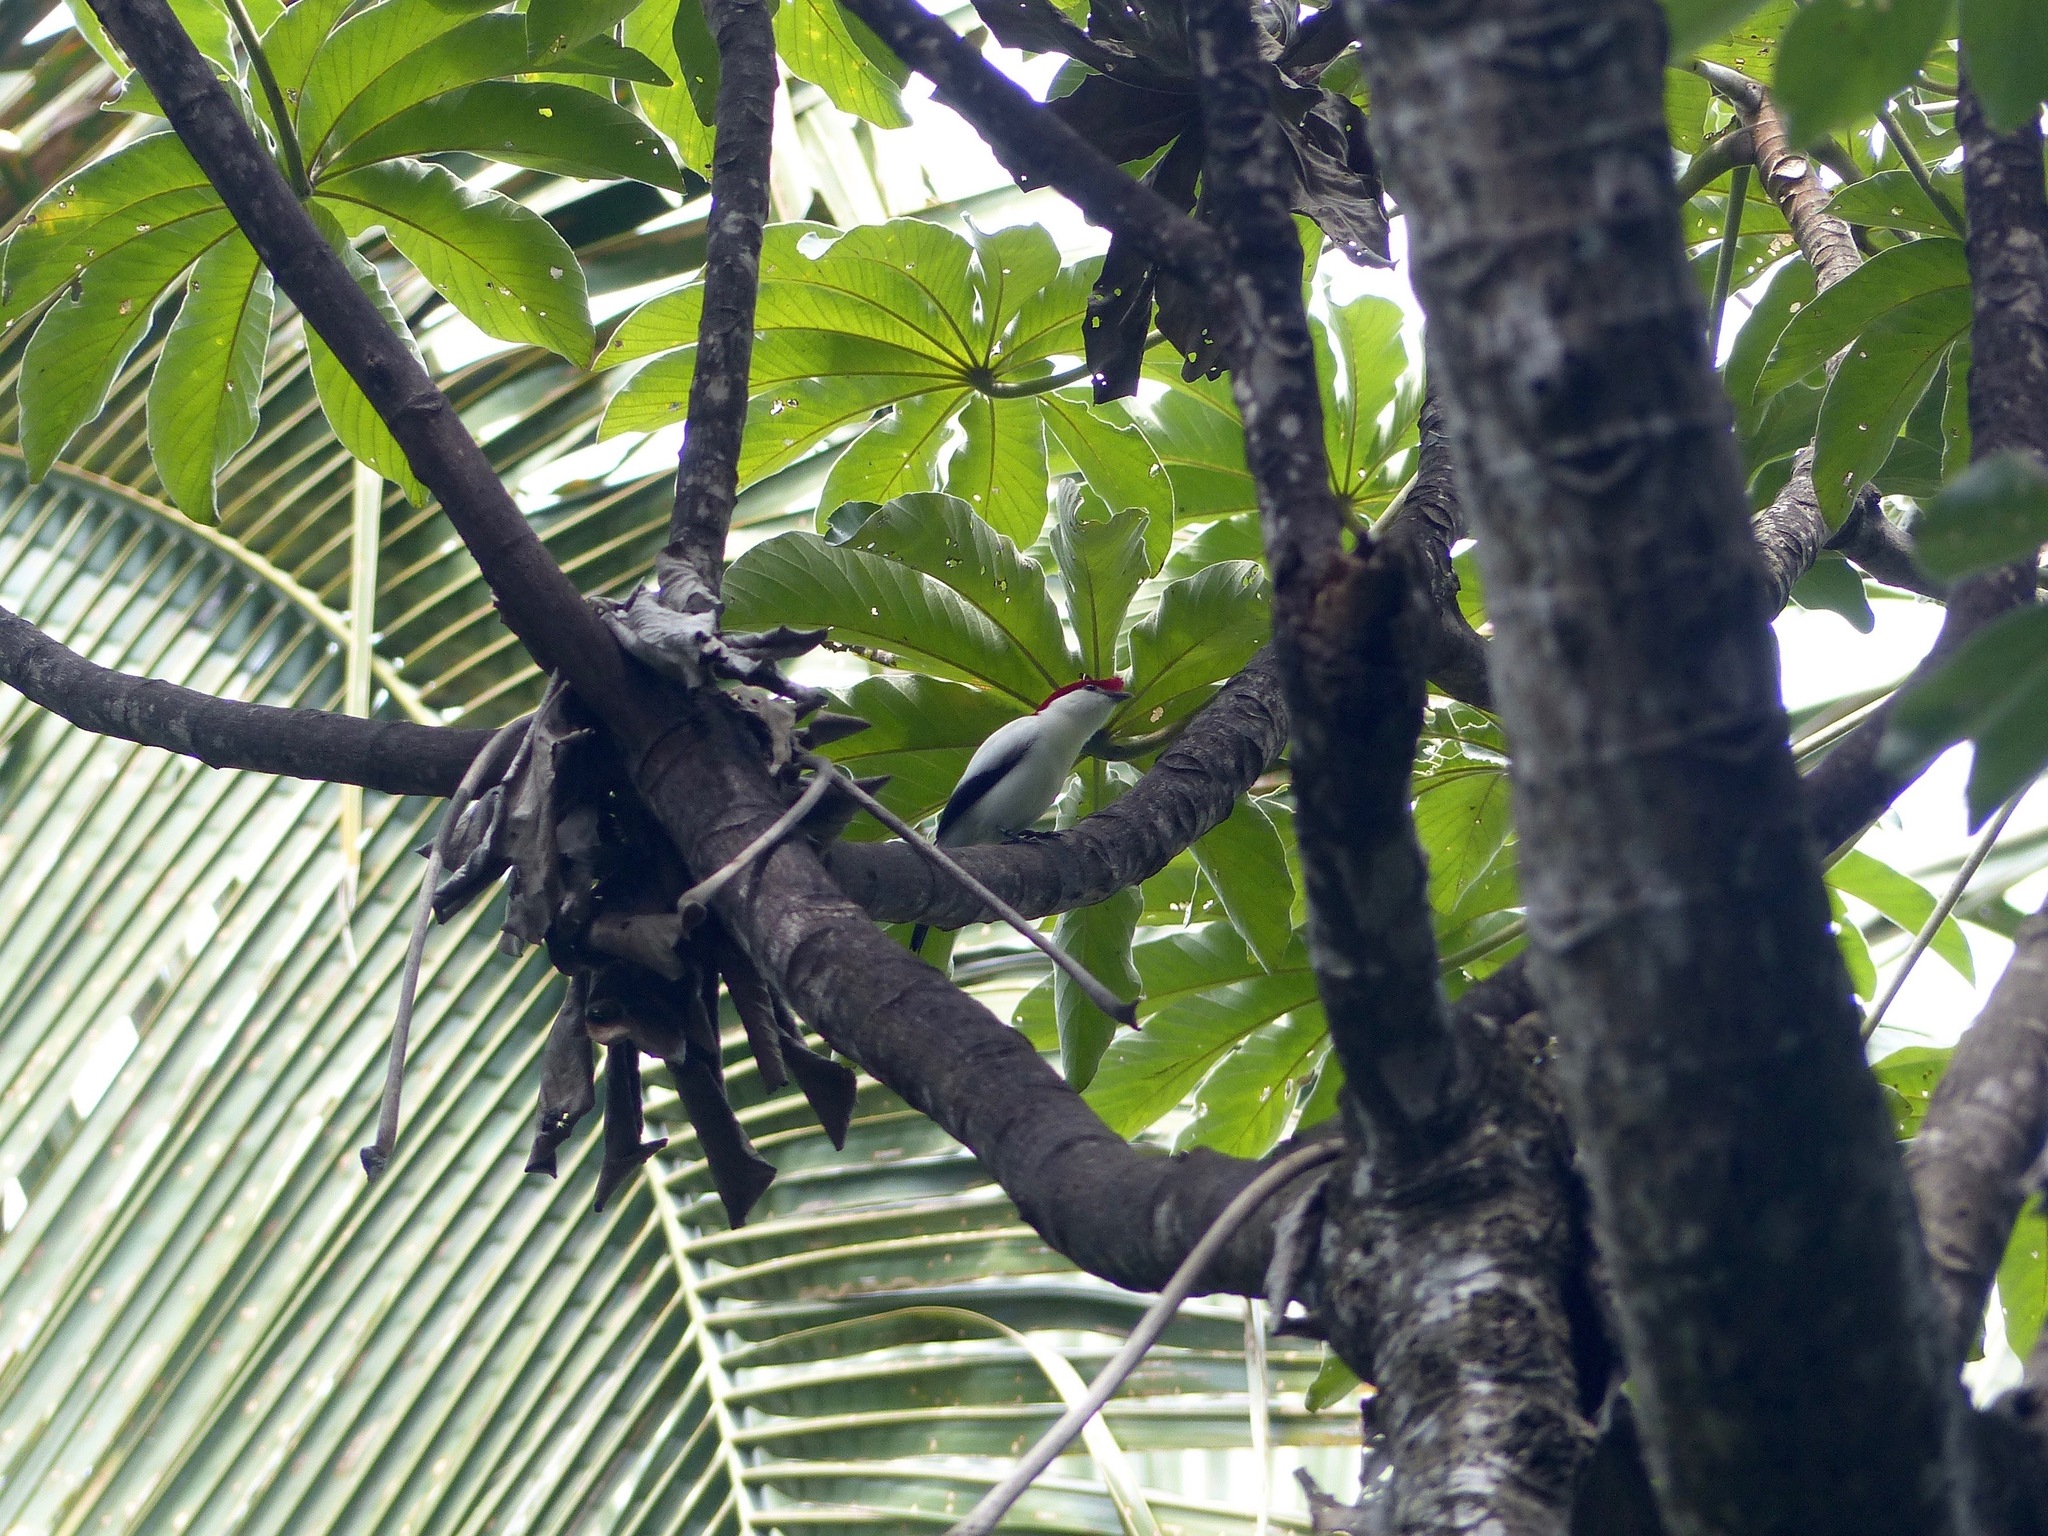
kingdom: Animalia
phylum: Chordata
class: Aves
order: Passeriformes
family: Pipridae
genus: Antilophia
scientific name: Antilophia bokermanni
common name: Araripe manakin
